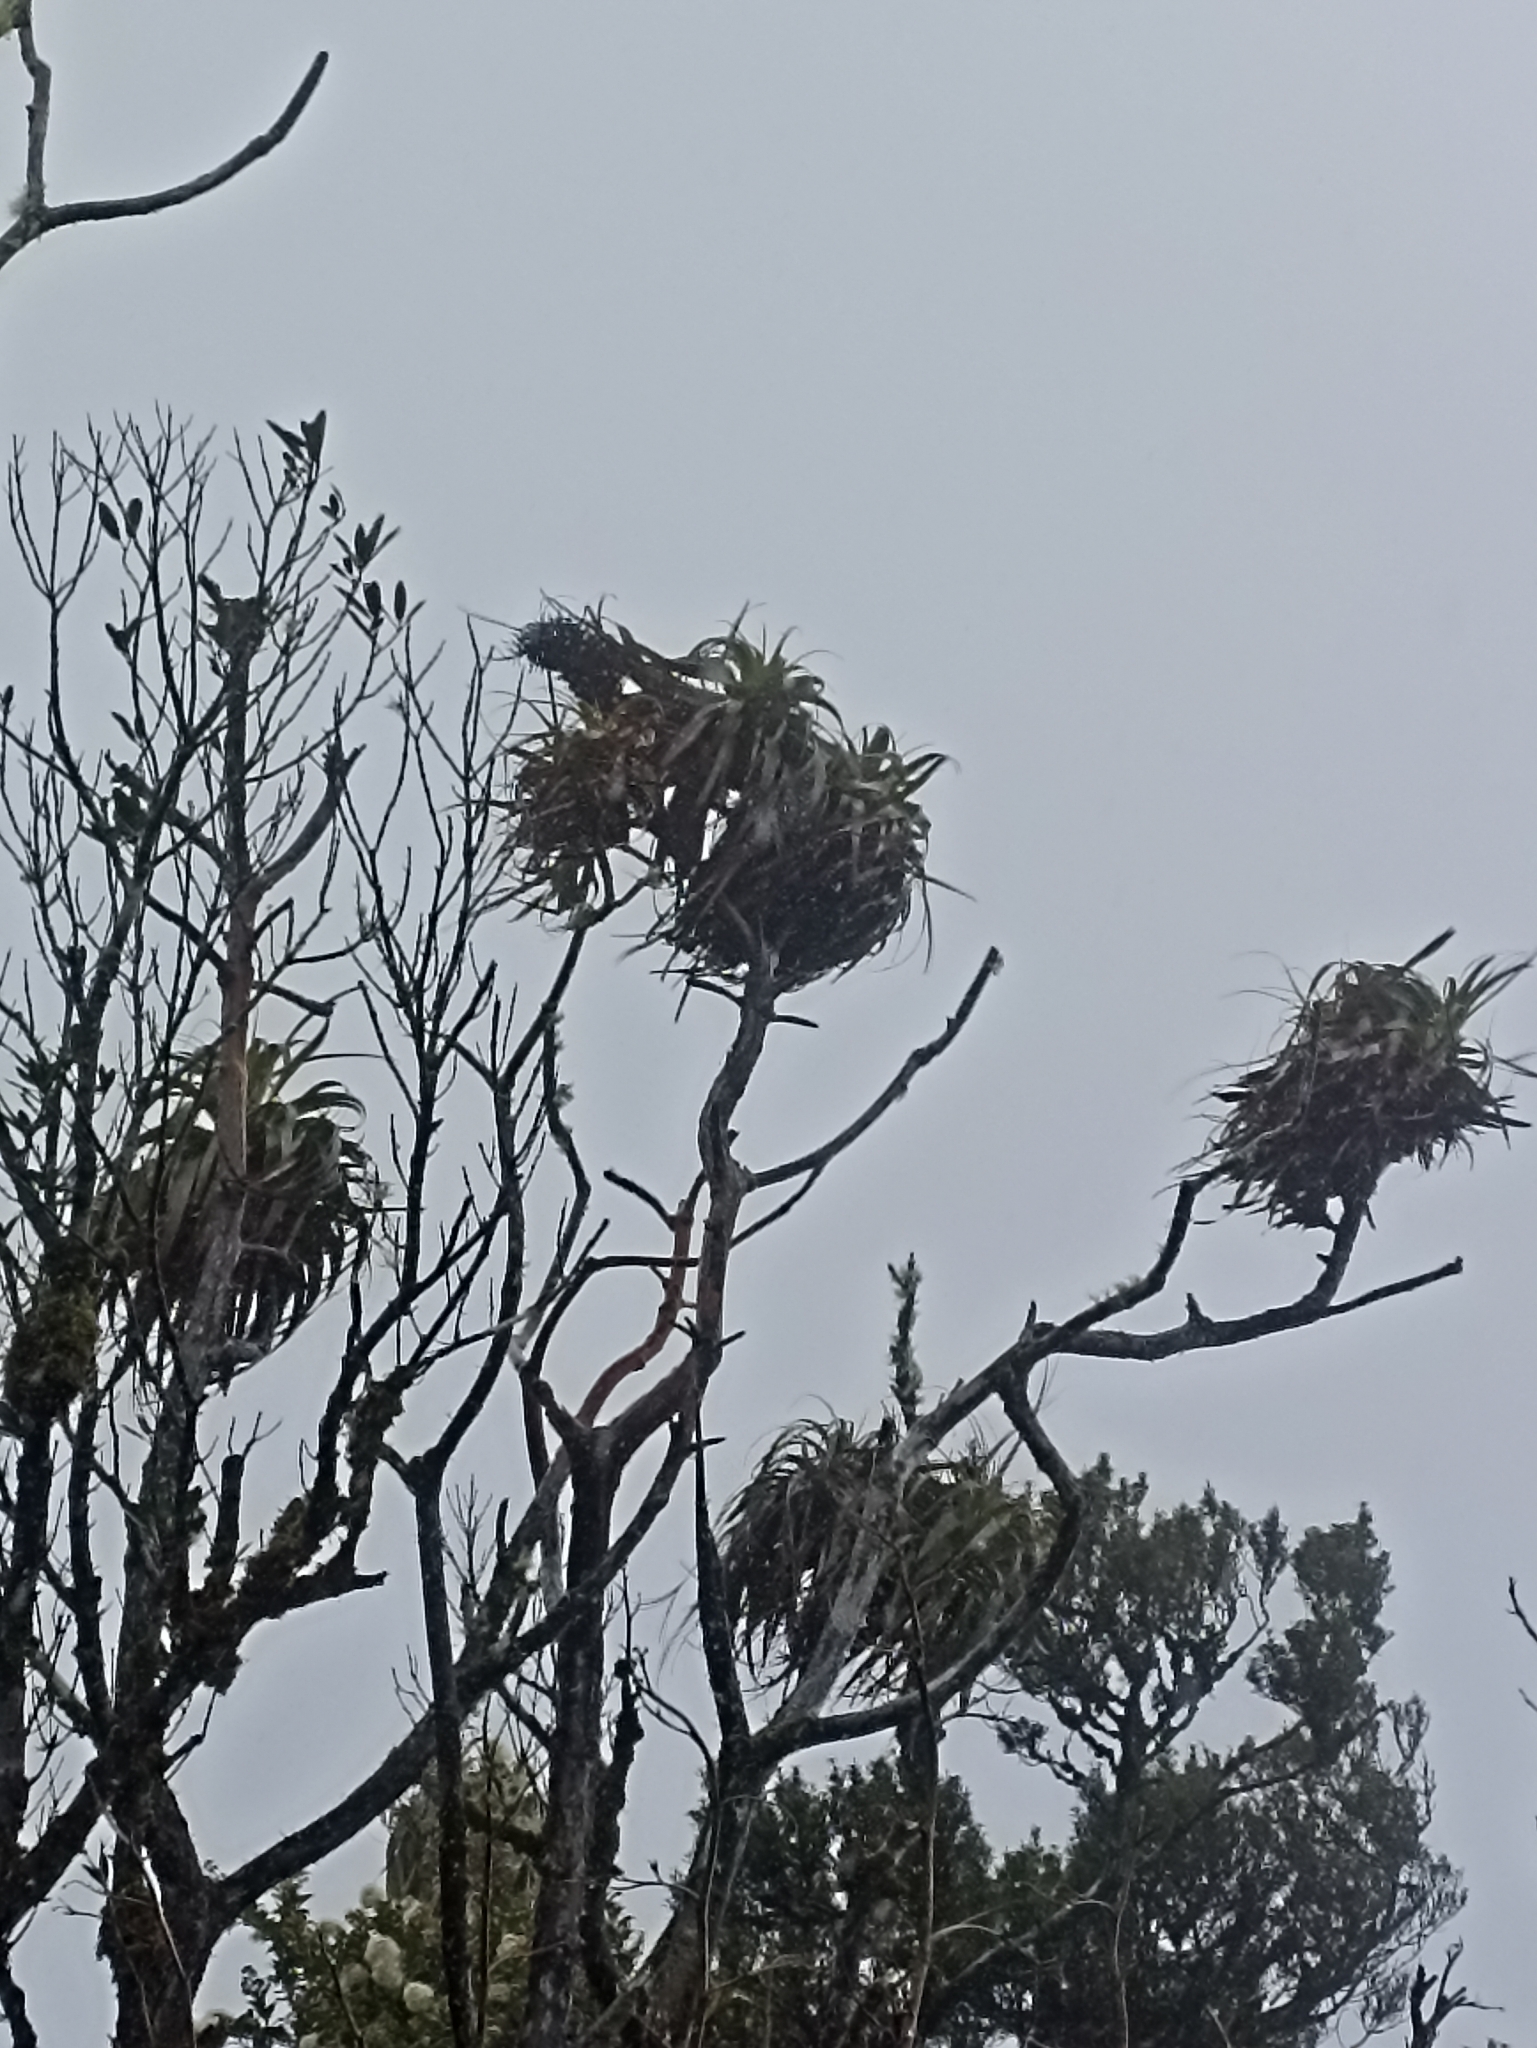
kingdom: Plantae
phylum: Tracheophyta
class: Magnoliopsida
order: Ericales
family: Ericaceae
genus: Dracophyllum
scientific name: Dracophyllum traversii
